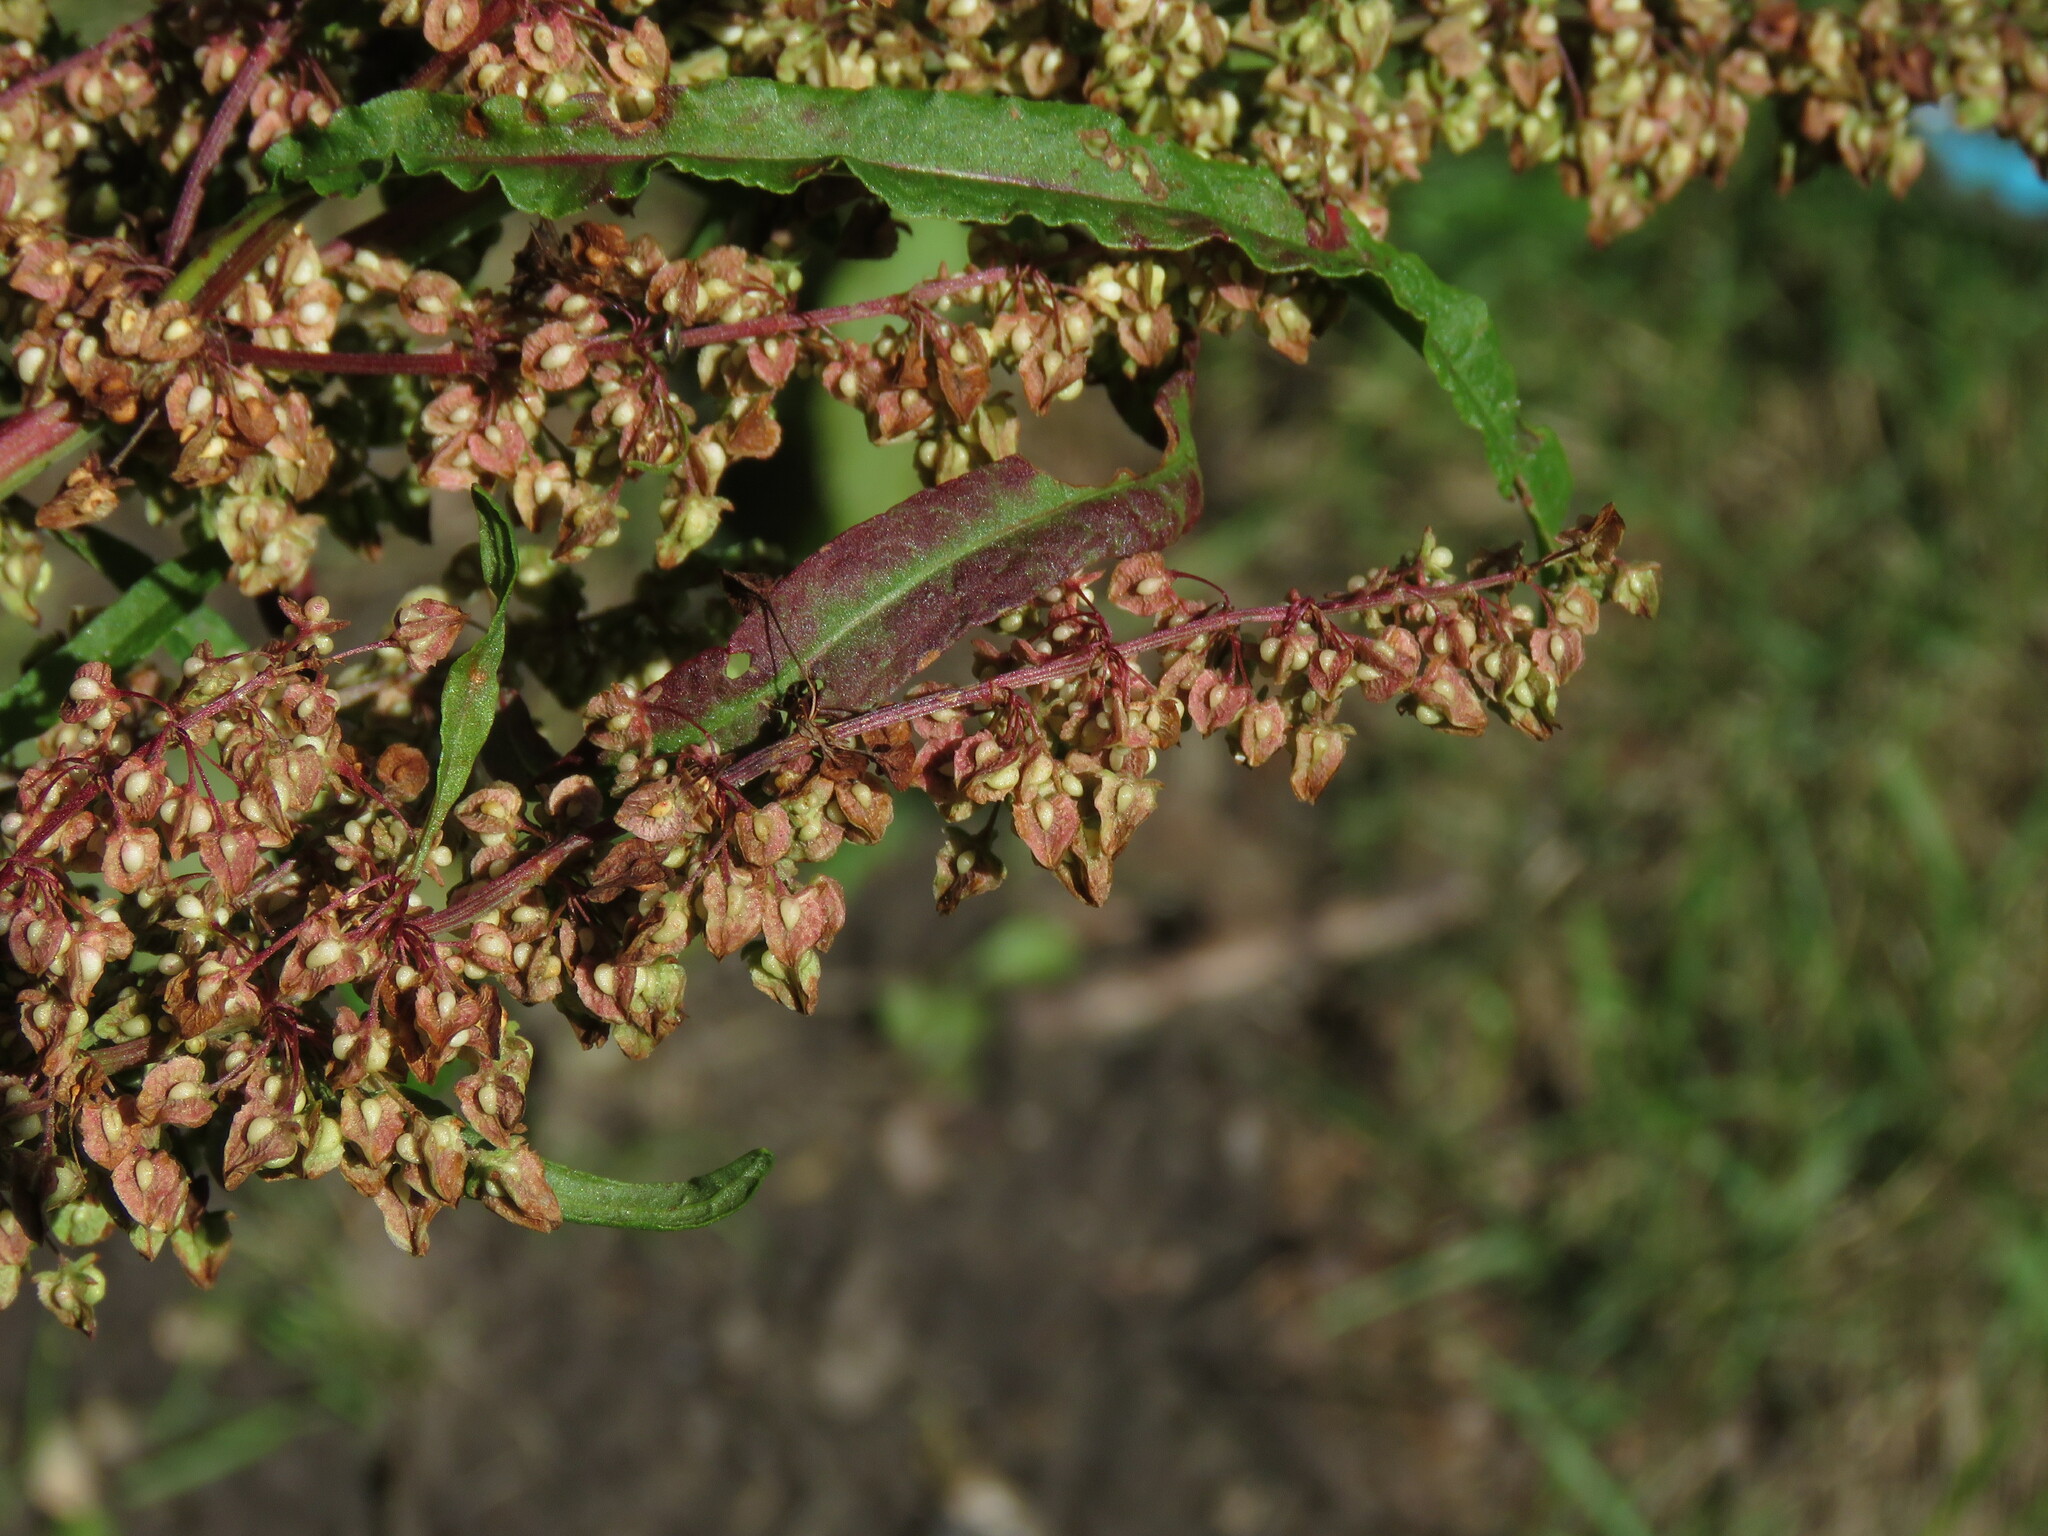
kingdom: Plantae
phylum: Tracheophyta
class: Magnoliopsida
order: Caryophyllales
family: Polygonaceae
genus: Rumex
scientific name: Rumex crispus
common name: Curled dock
